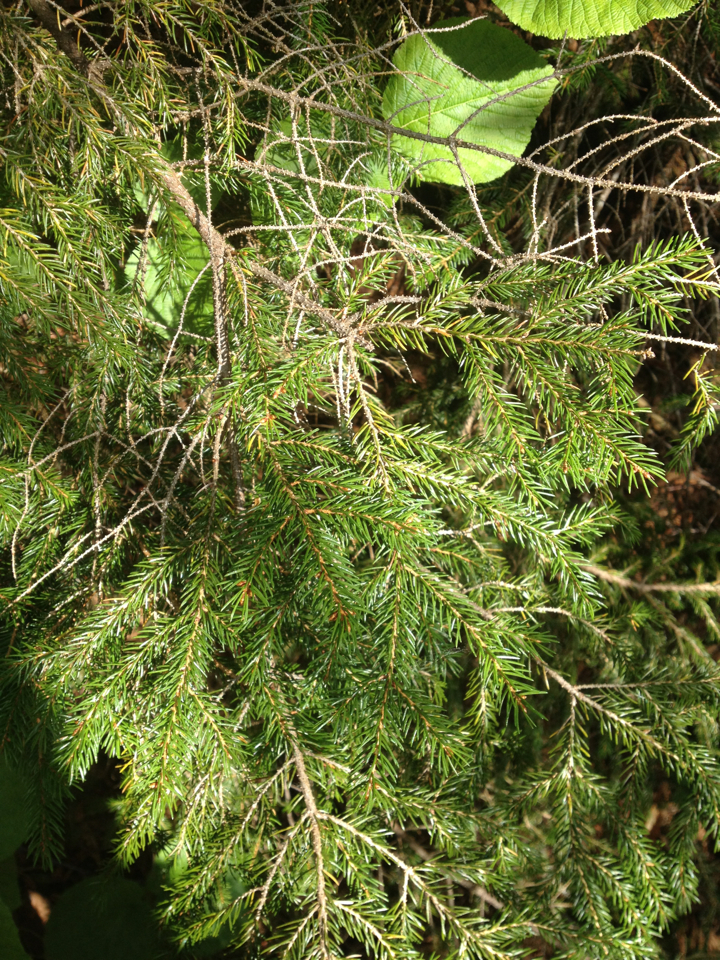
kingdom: Plantae
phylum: Tracheophyta
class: Pinopsida
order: Pinales
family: Pinaceae
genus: Picea
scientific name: Picea rubens
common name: Red spruce
